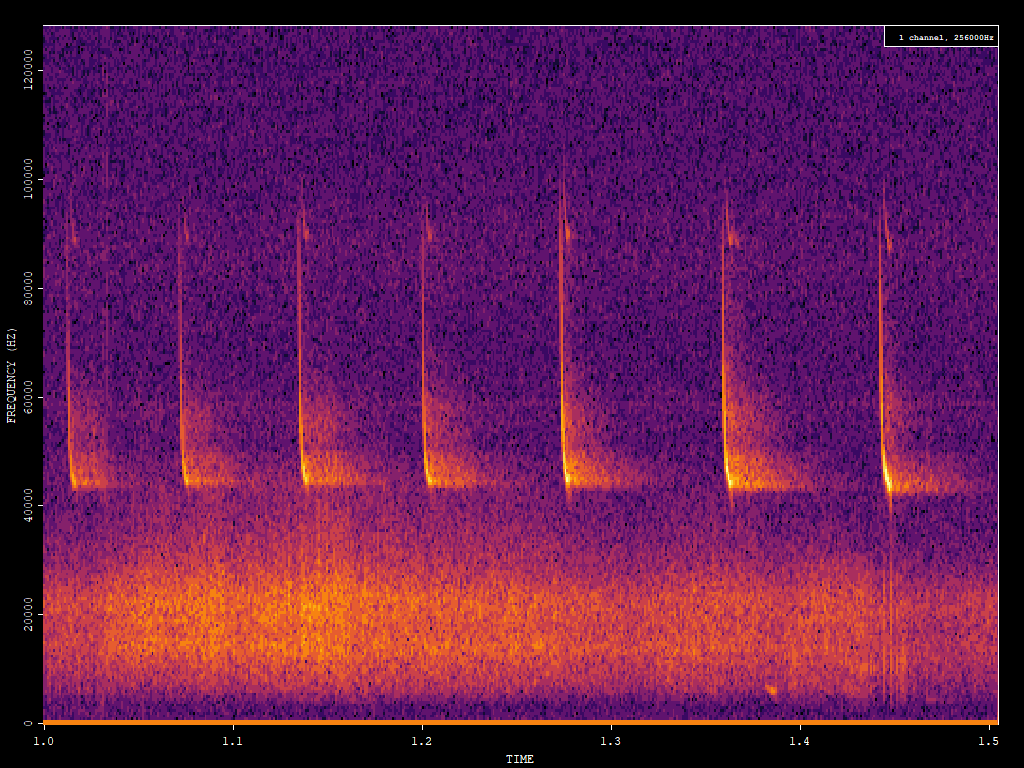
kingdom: Animalia
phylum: Chordata
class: Mammalia
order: Chiroptera
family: Vespertilionidae
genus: Pipistrellus
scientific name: Pipistrellus pipistrellus
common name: Common pipistrelle
